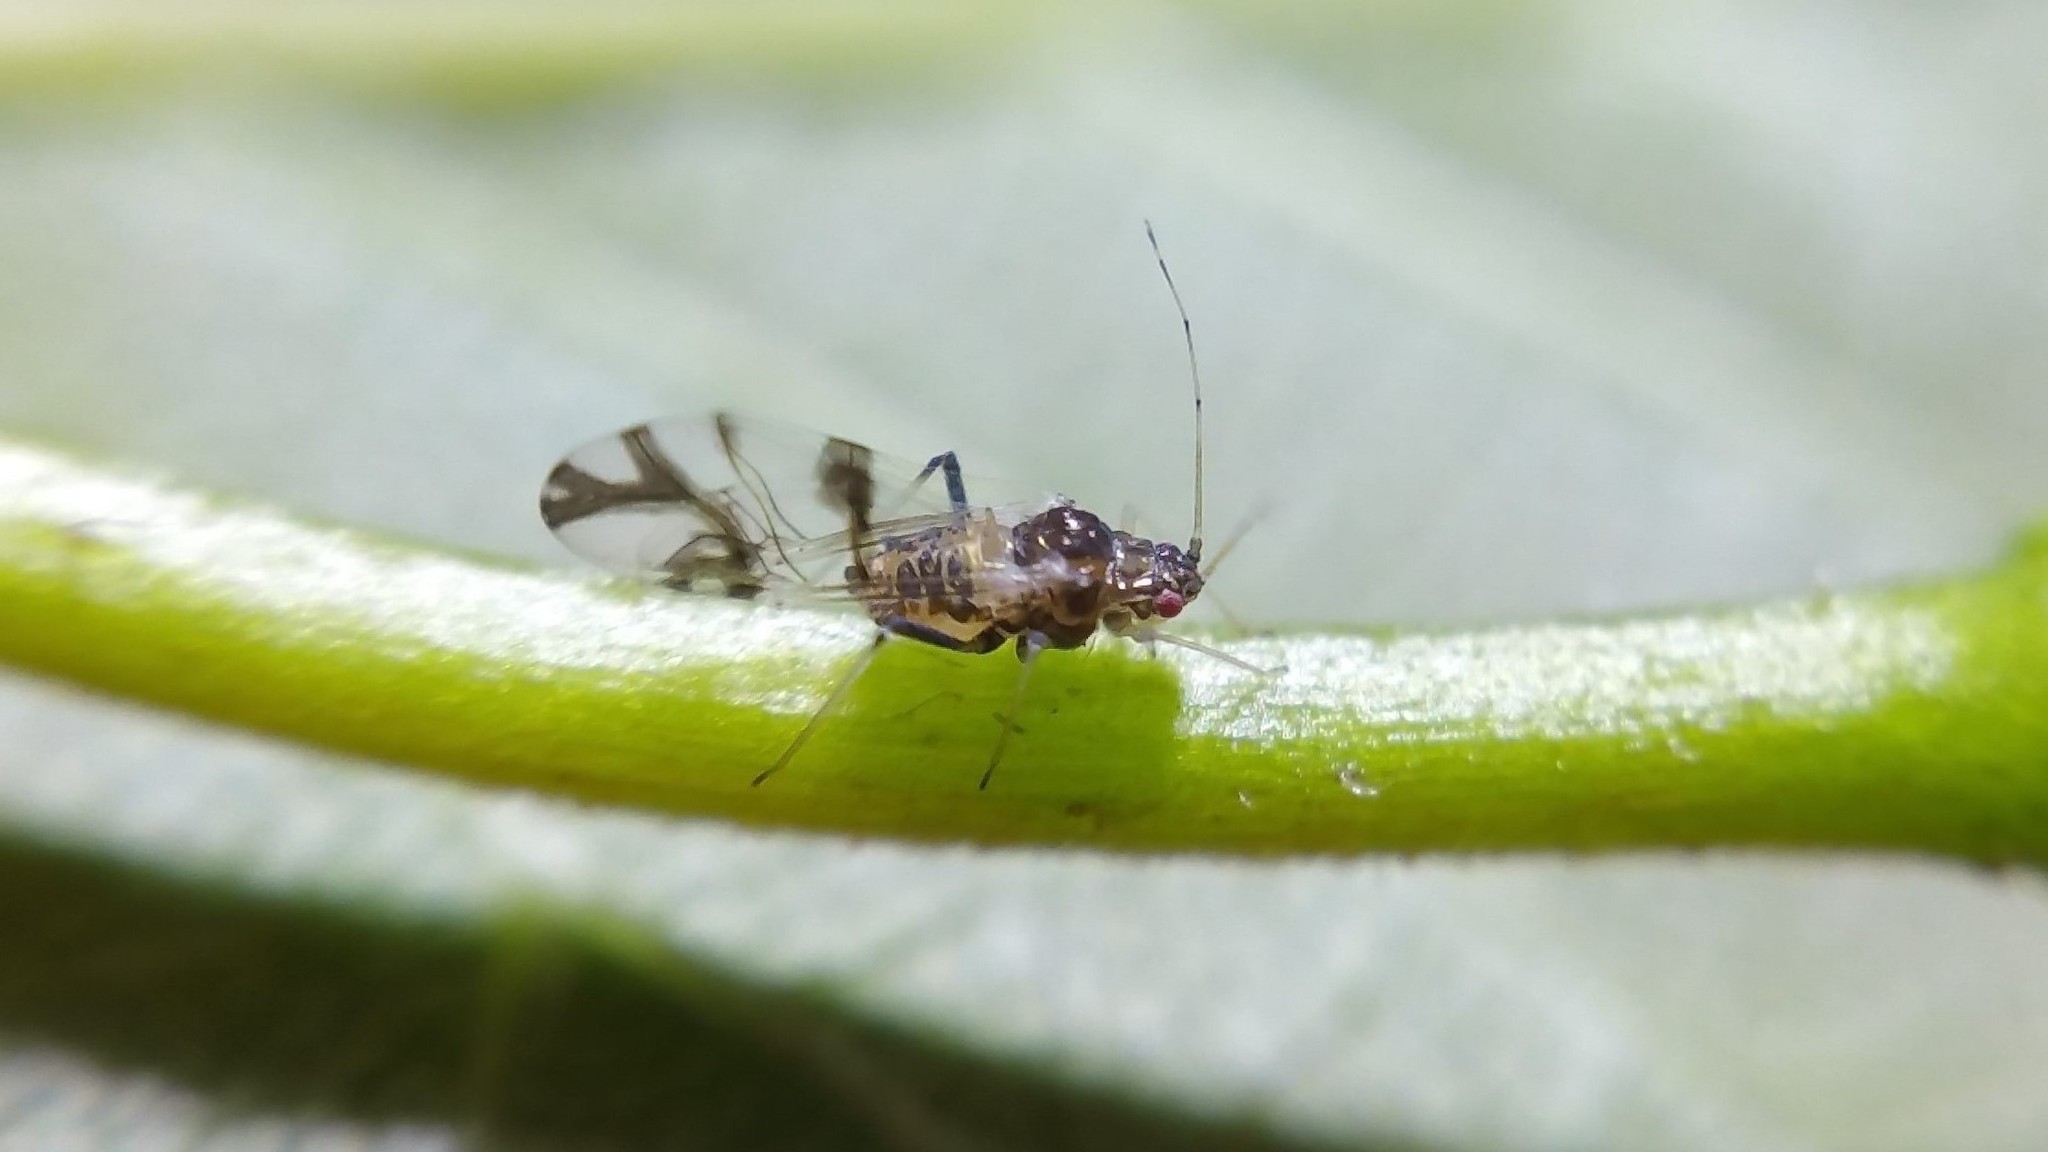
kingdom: Animalia
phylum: Arthropoda
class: Insecta
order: Hemiptera
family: Aphididae
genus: Tinocallis
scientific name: Tinocallis platani
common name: Elm aphid
